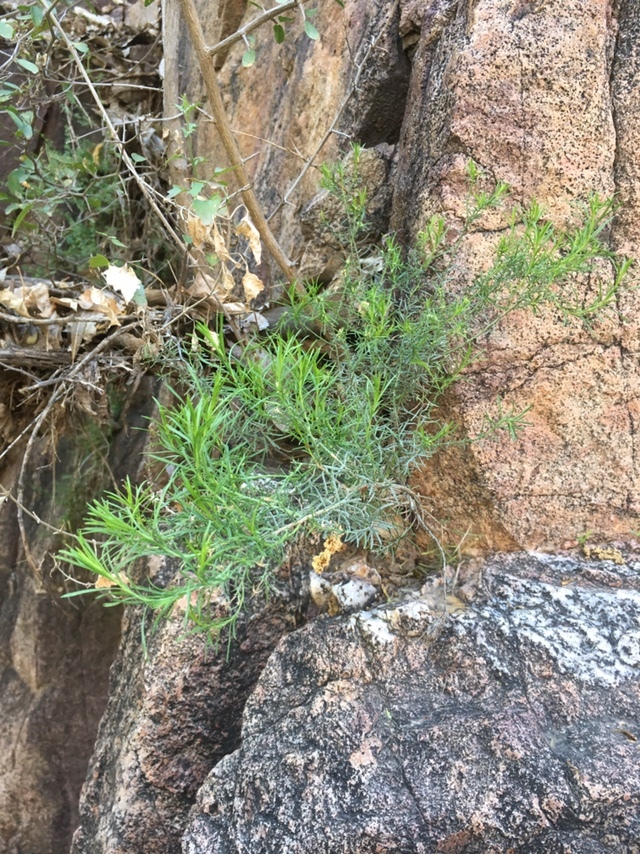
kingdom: Plantae
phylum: Tracheophyta
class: Magnoliopsida
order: Asterales
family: Asteraceae
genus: Gutierrezia
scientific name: Gutierrezia sarothrae
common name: Broom snakeweed
